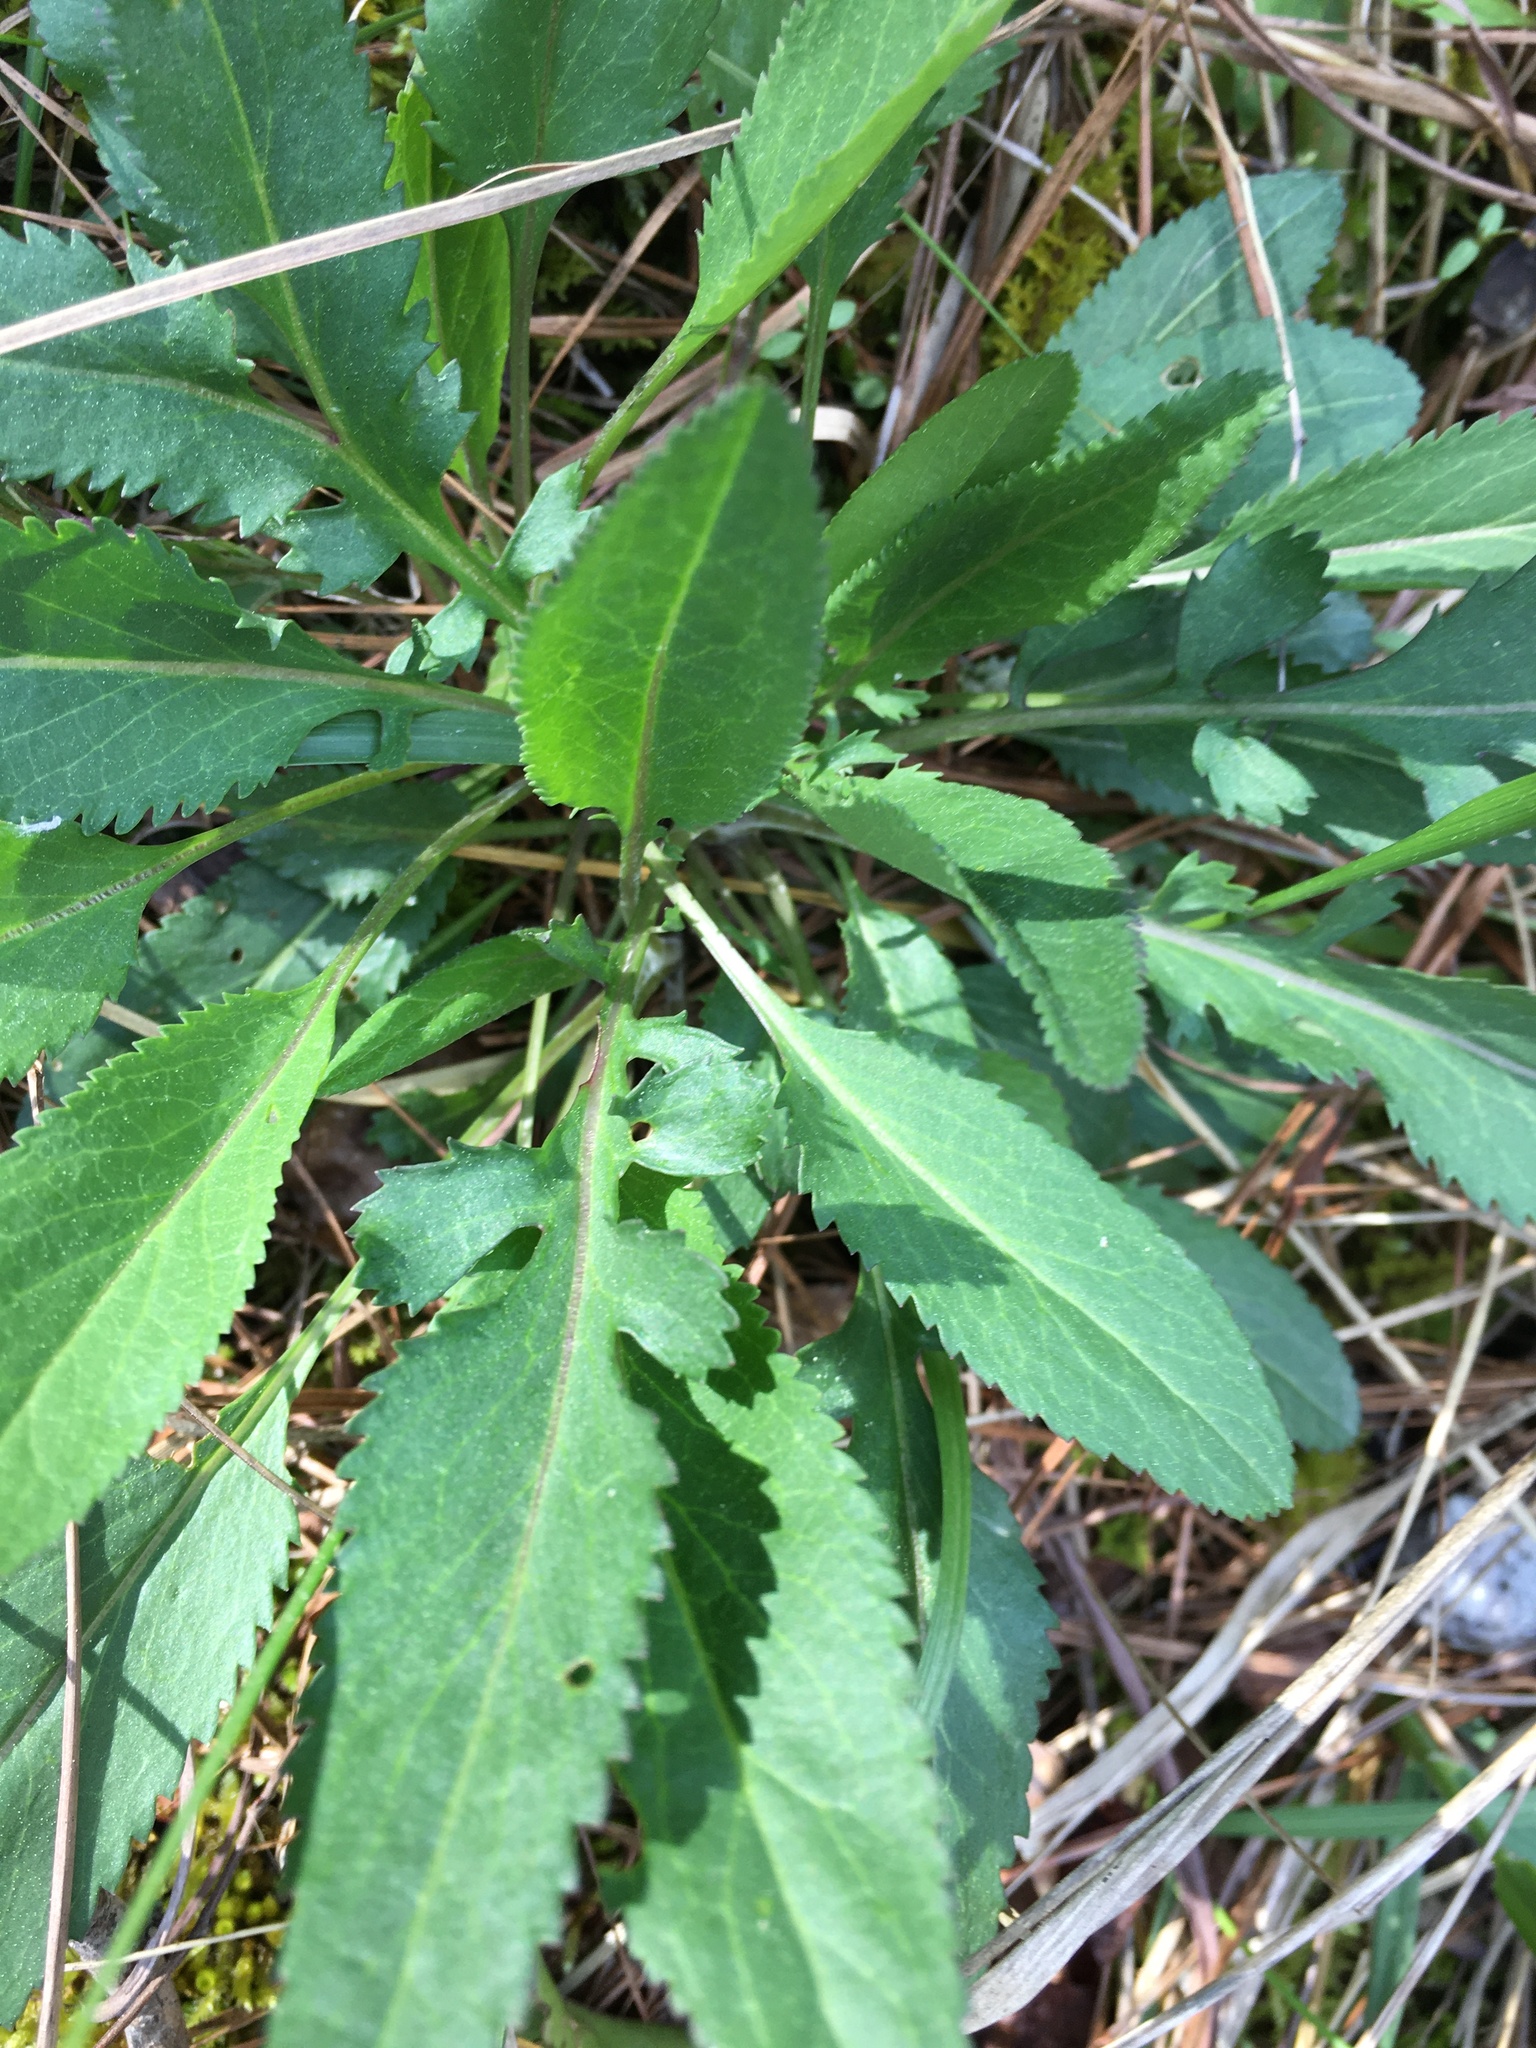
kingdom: Plantae
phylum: Tracheophyta
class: Magnoliopsida
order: Asterales
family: Asteraceae
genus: Packera
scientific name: Packera anonyma
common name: Small ragwort
